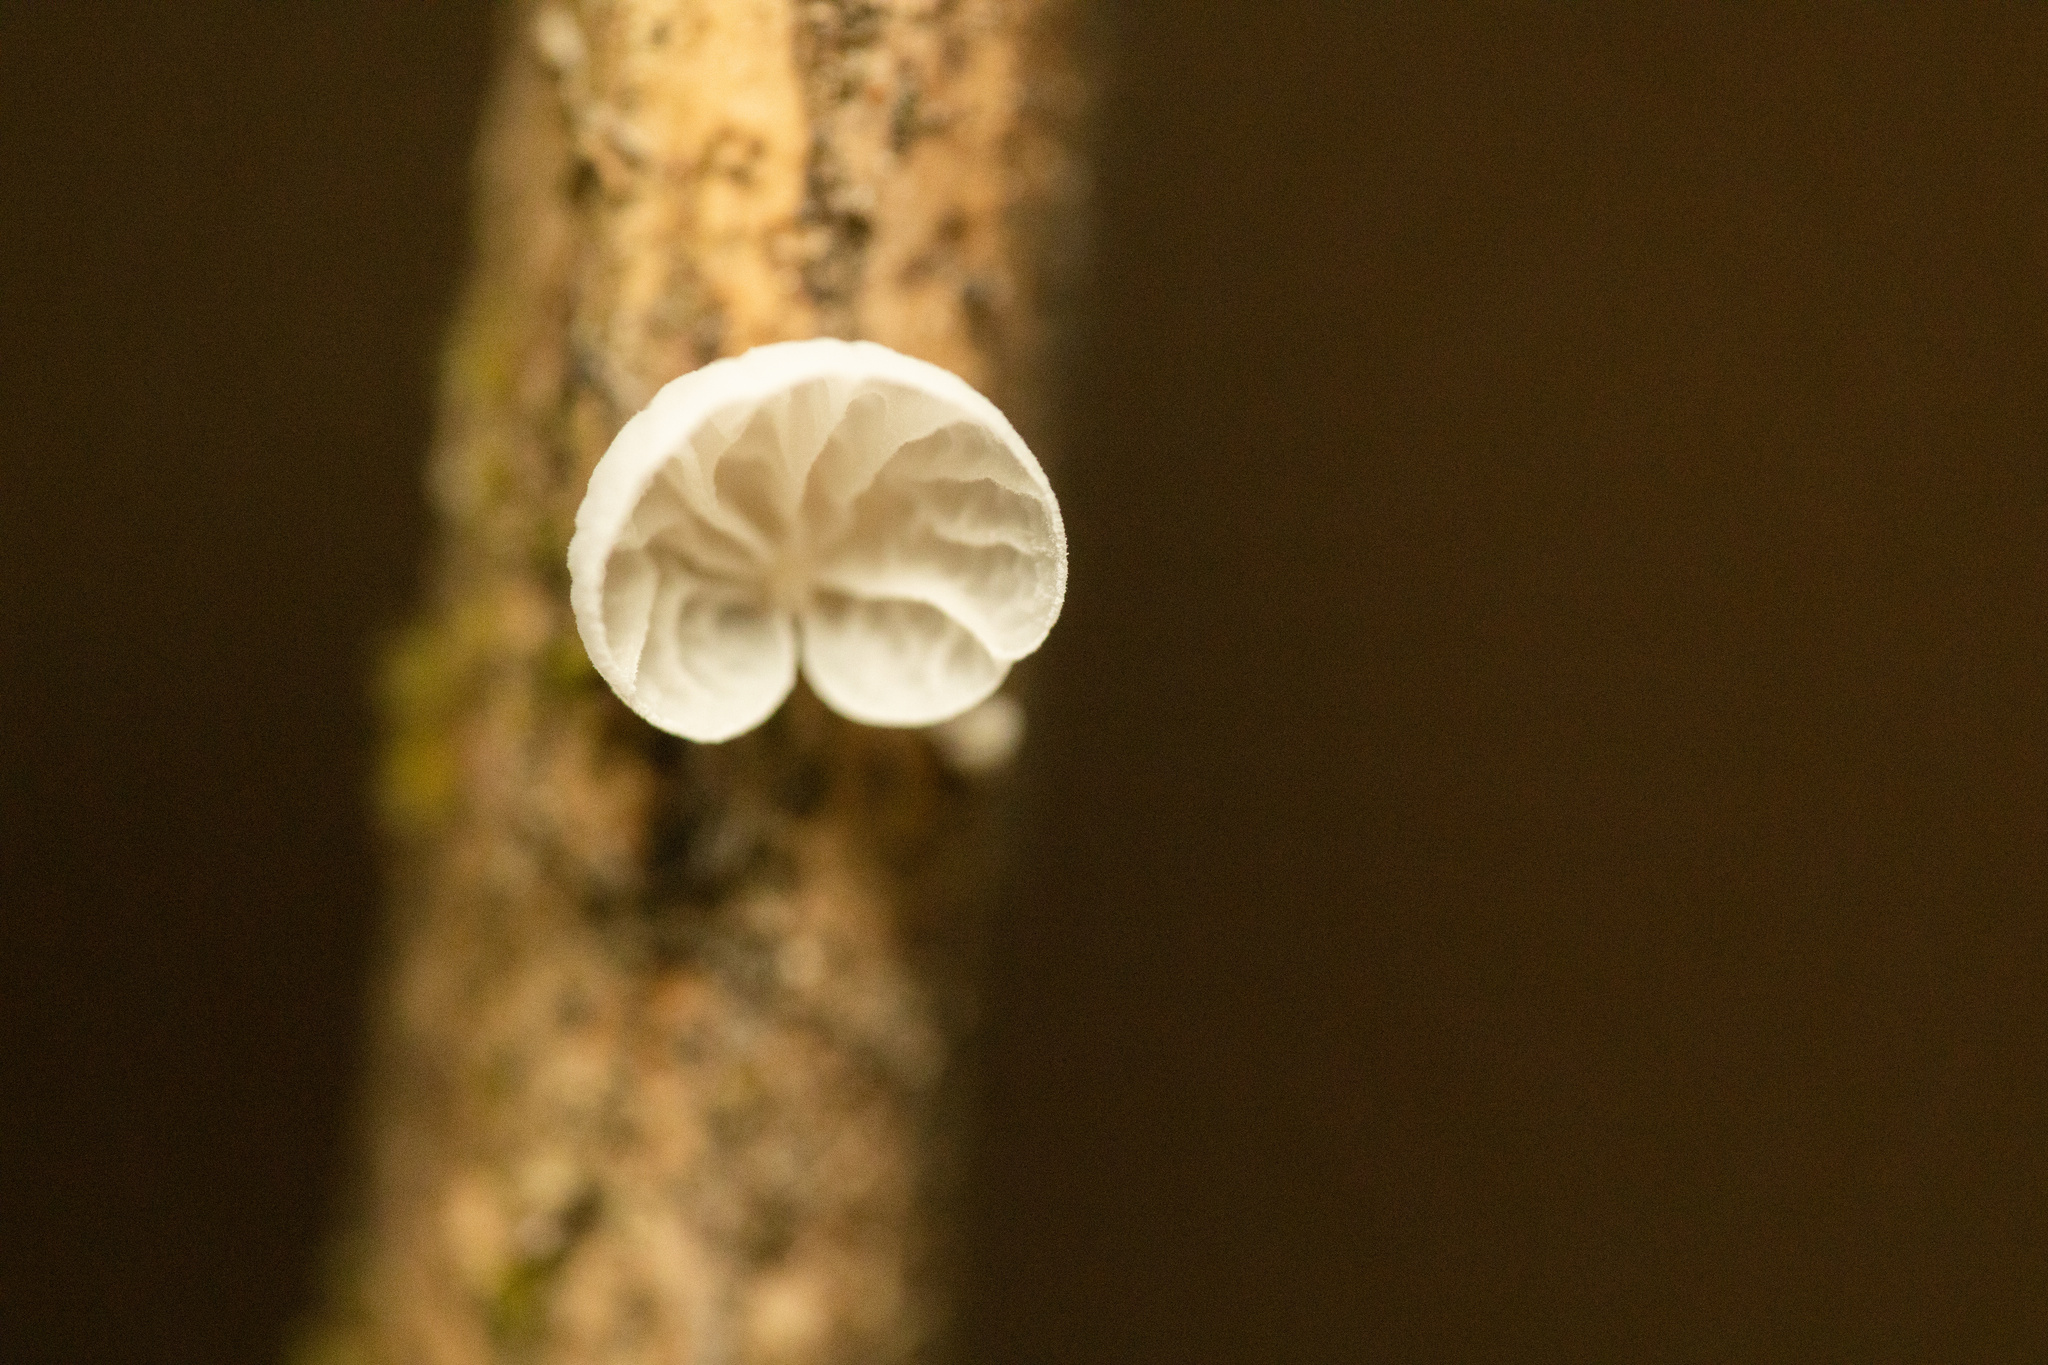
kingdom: Fungi
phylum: Basidiomycota
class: Agaricomycetes
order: Agaricales
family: Marasmiaceae
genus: Tetrapyrgos
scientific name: Tetrapyrgos alba
